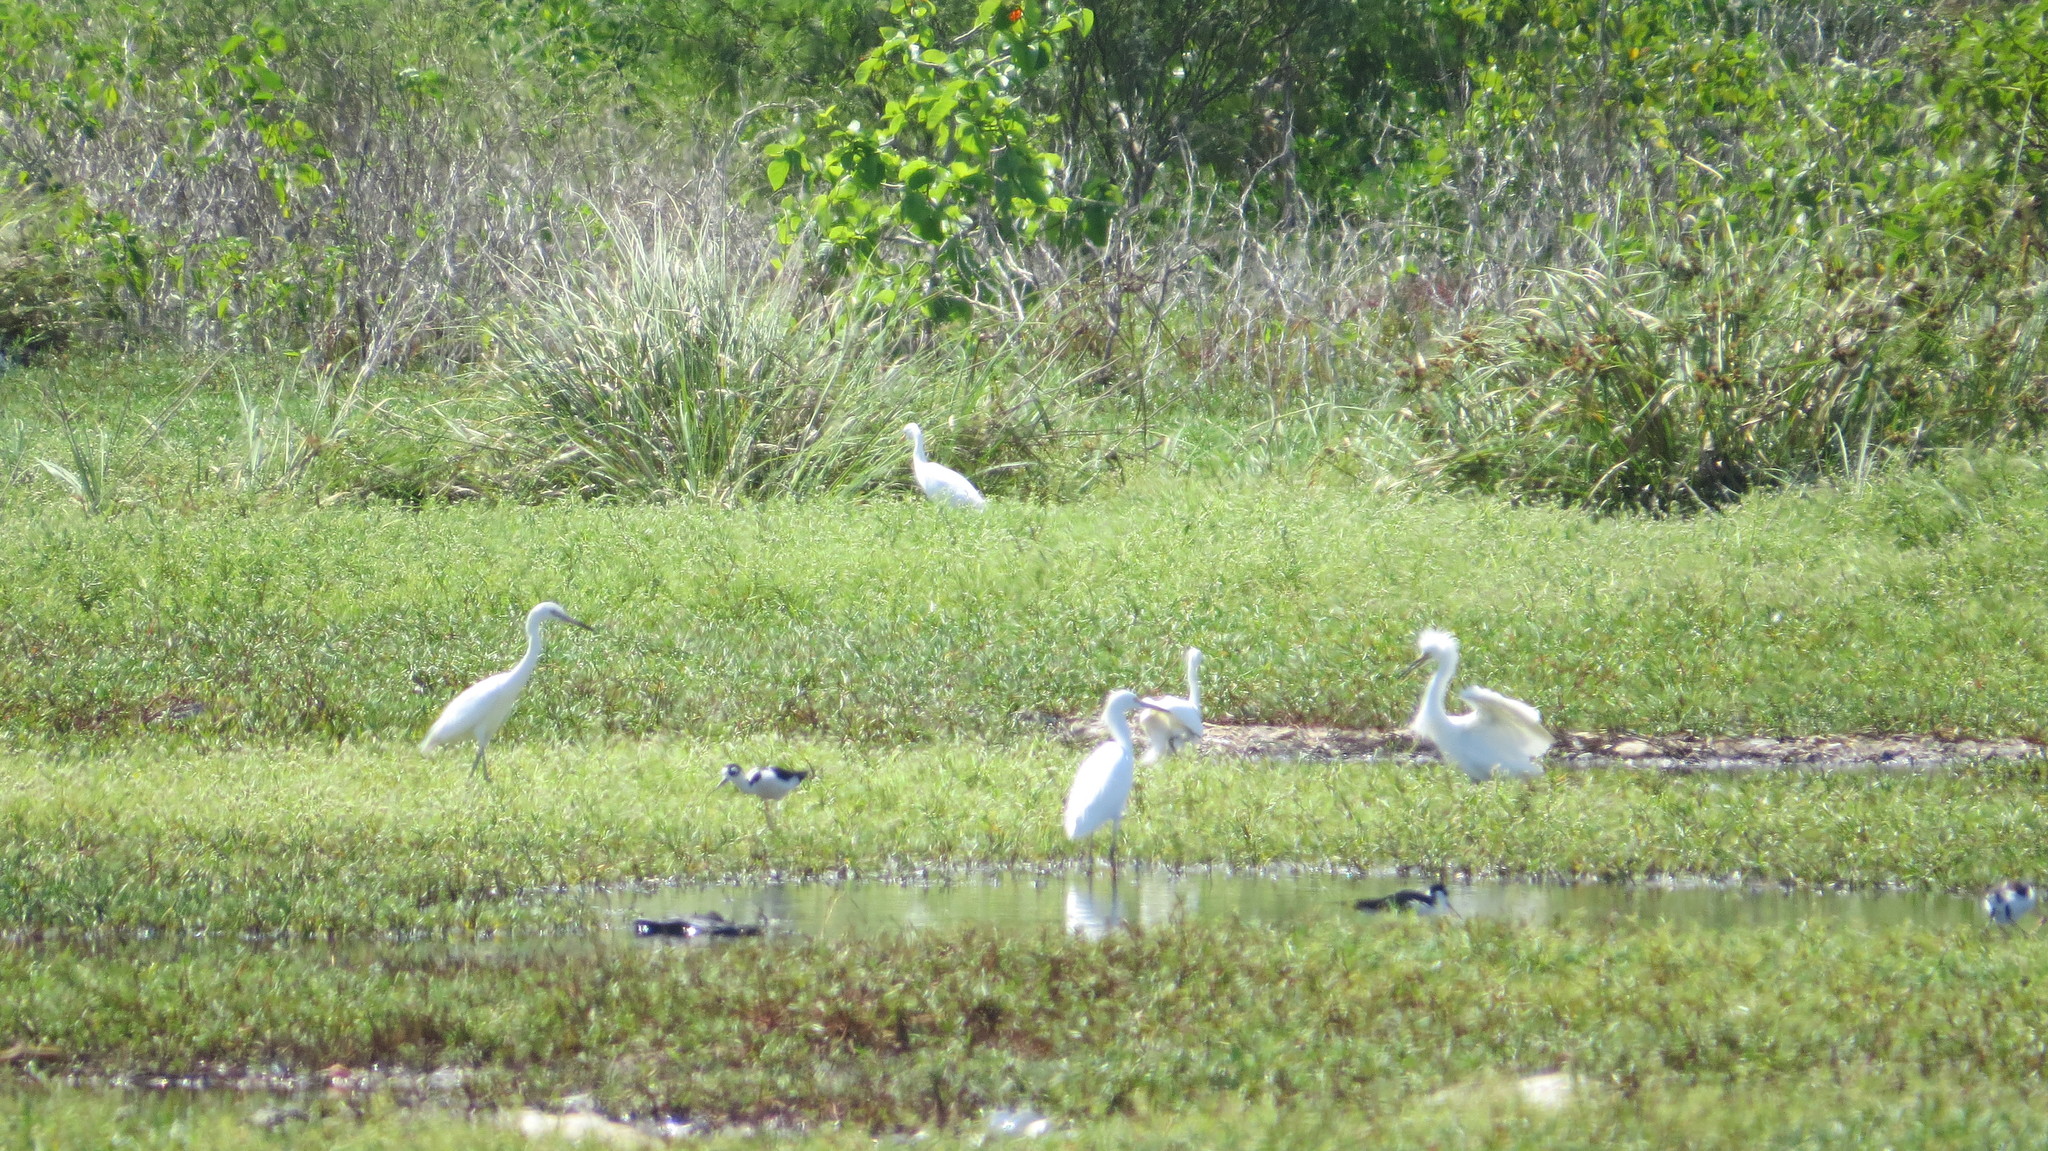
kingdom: Animalia
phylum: Chordata
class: Aves
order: Pelecaniformes
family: Ardeidae
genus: Egretta
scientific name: Egretta caerulea
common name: Little blue heron
